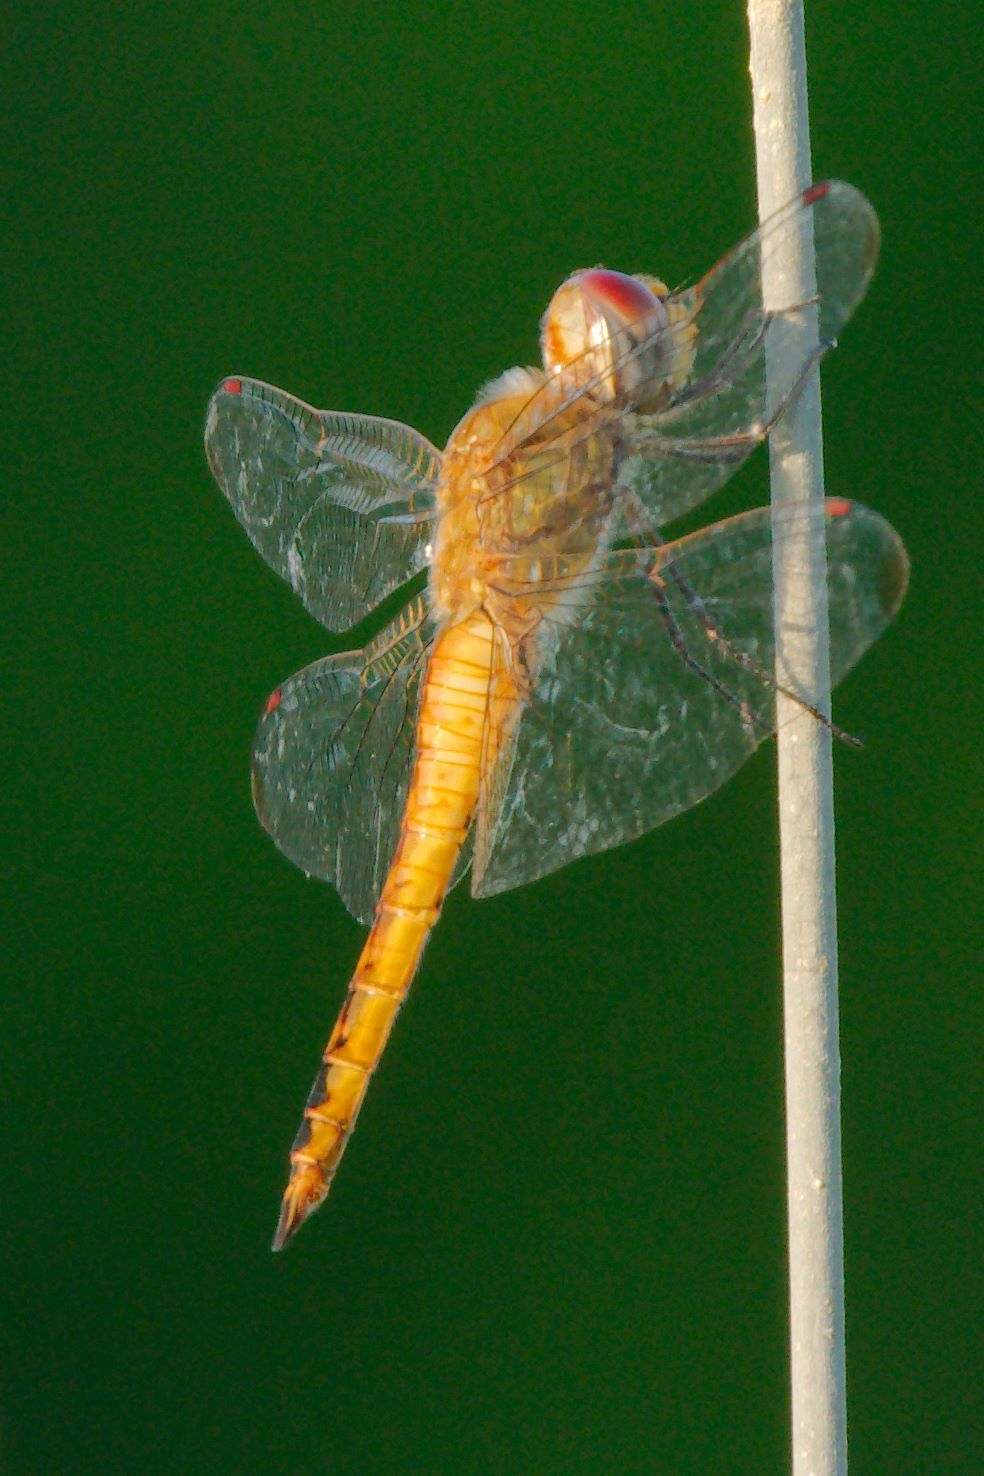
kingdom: Animalia
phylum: Arthropoda
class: Insecta
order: Odonata
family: Libellulidae
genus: Pantala
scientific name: Pantala flavescens
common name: Wandering glider
